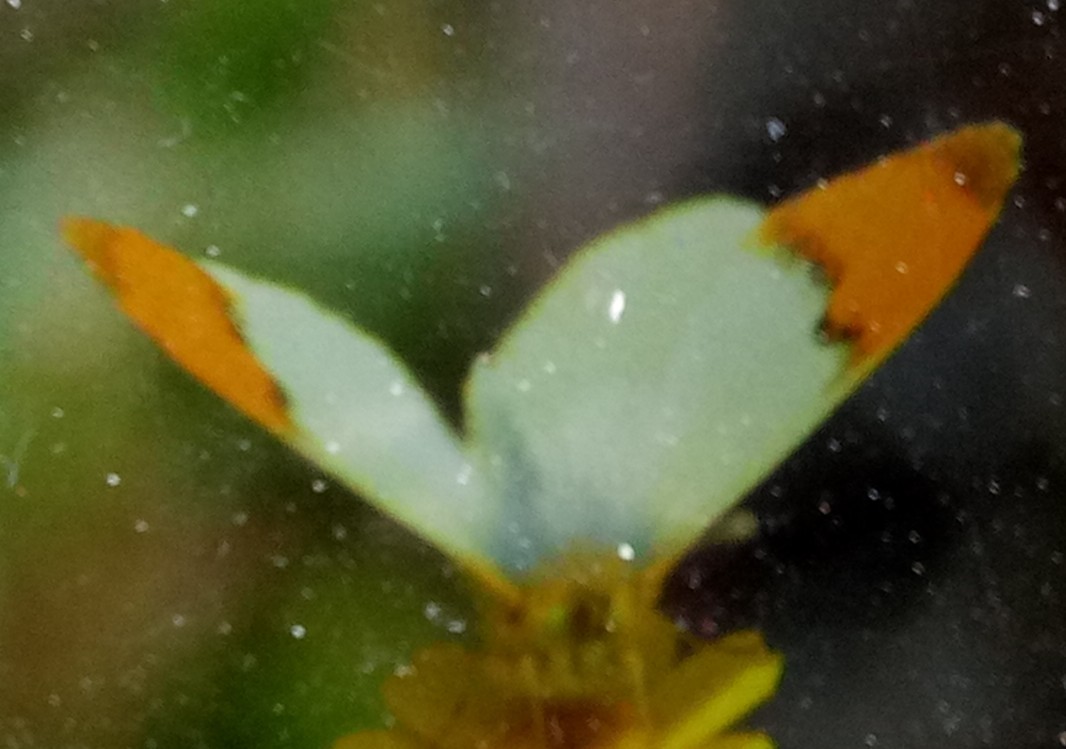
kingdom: Animalia
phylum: Arthropoda
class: Insecta
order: Lepidoptera
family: Pieridae
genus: Anthocharis
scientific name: Anthocharis belia
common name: Moroccan orange tip
